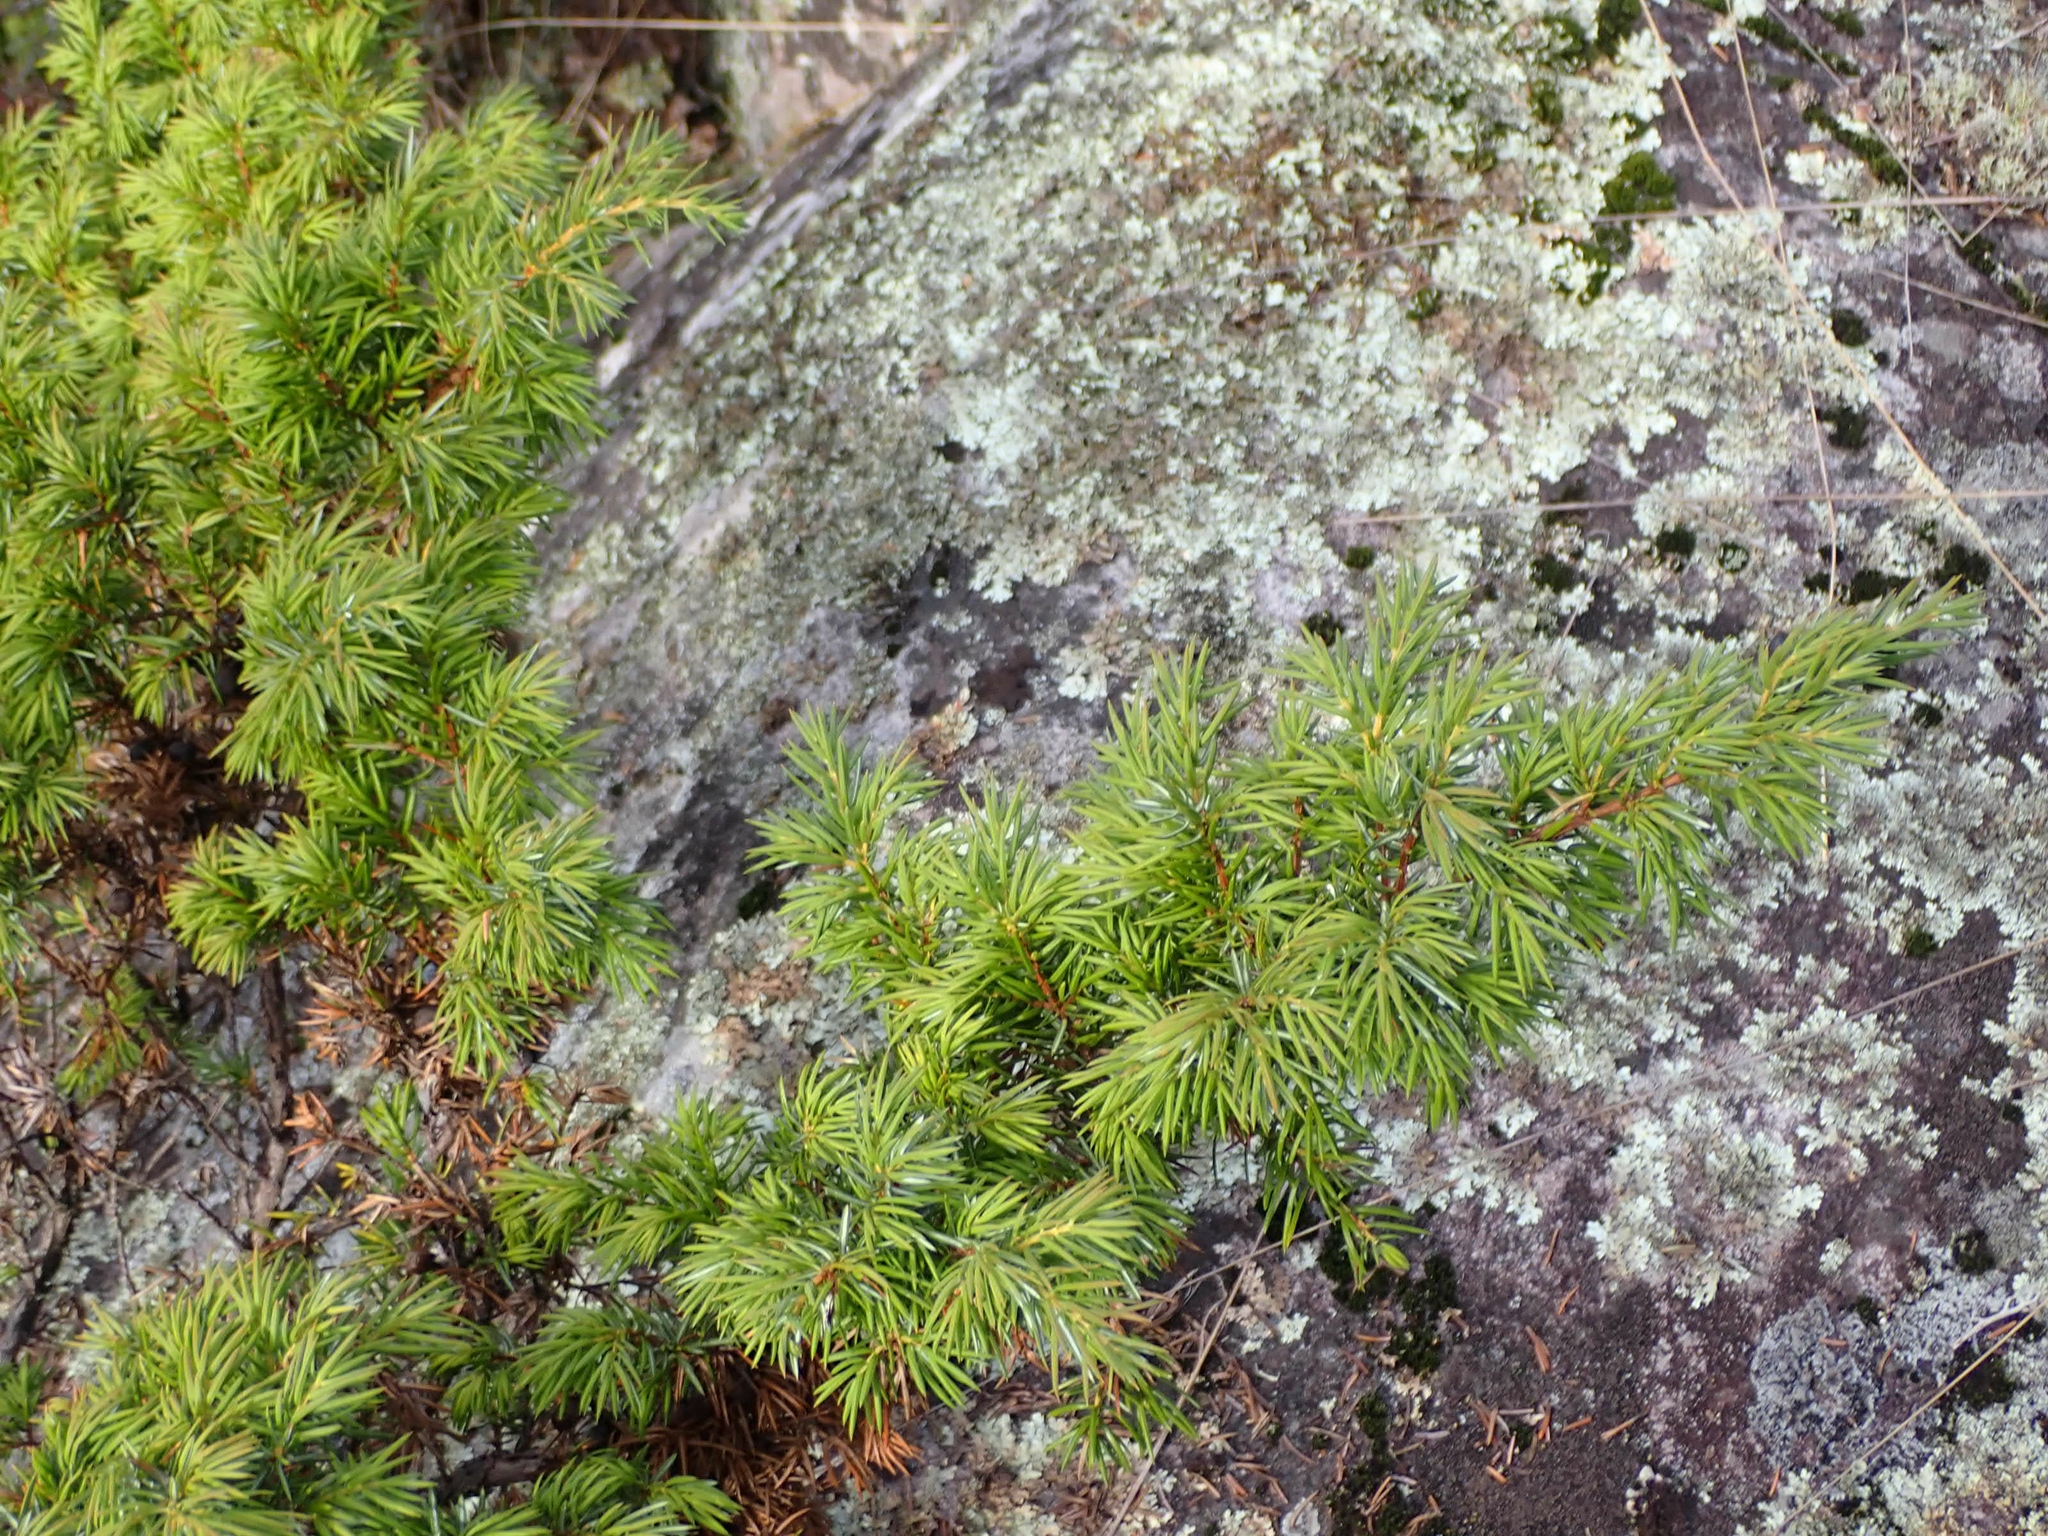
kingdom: Plantae
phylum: Tracheophyta
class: Pinopsida
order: Pinales
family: Cupressaceae
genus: Juniperus
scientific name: Juniperus communis
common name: Common juniper
